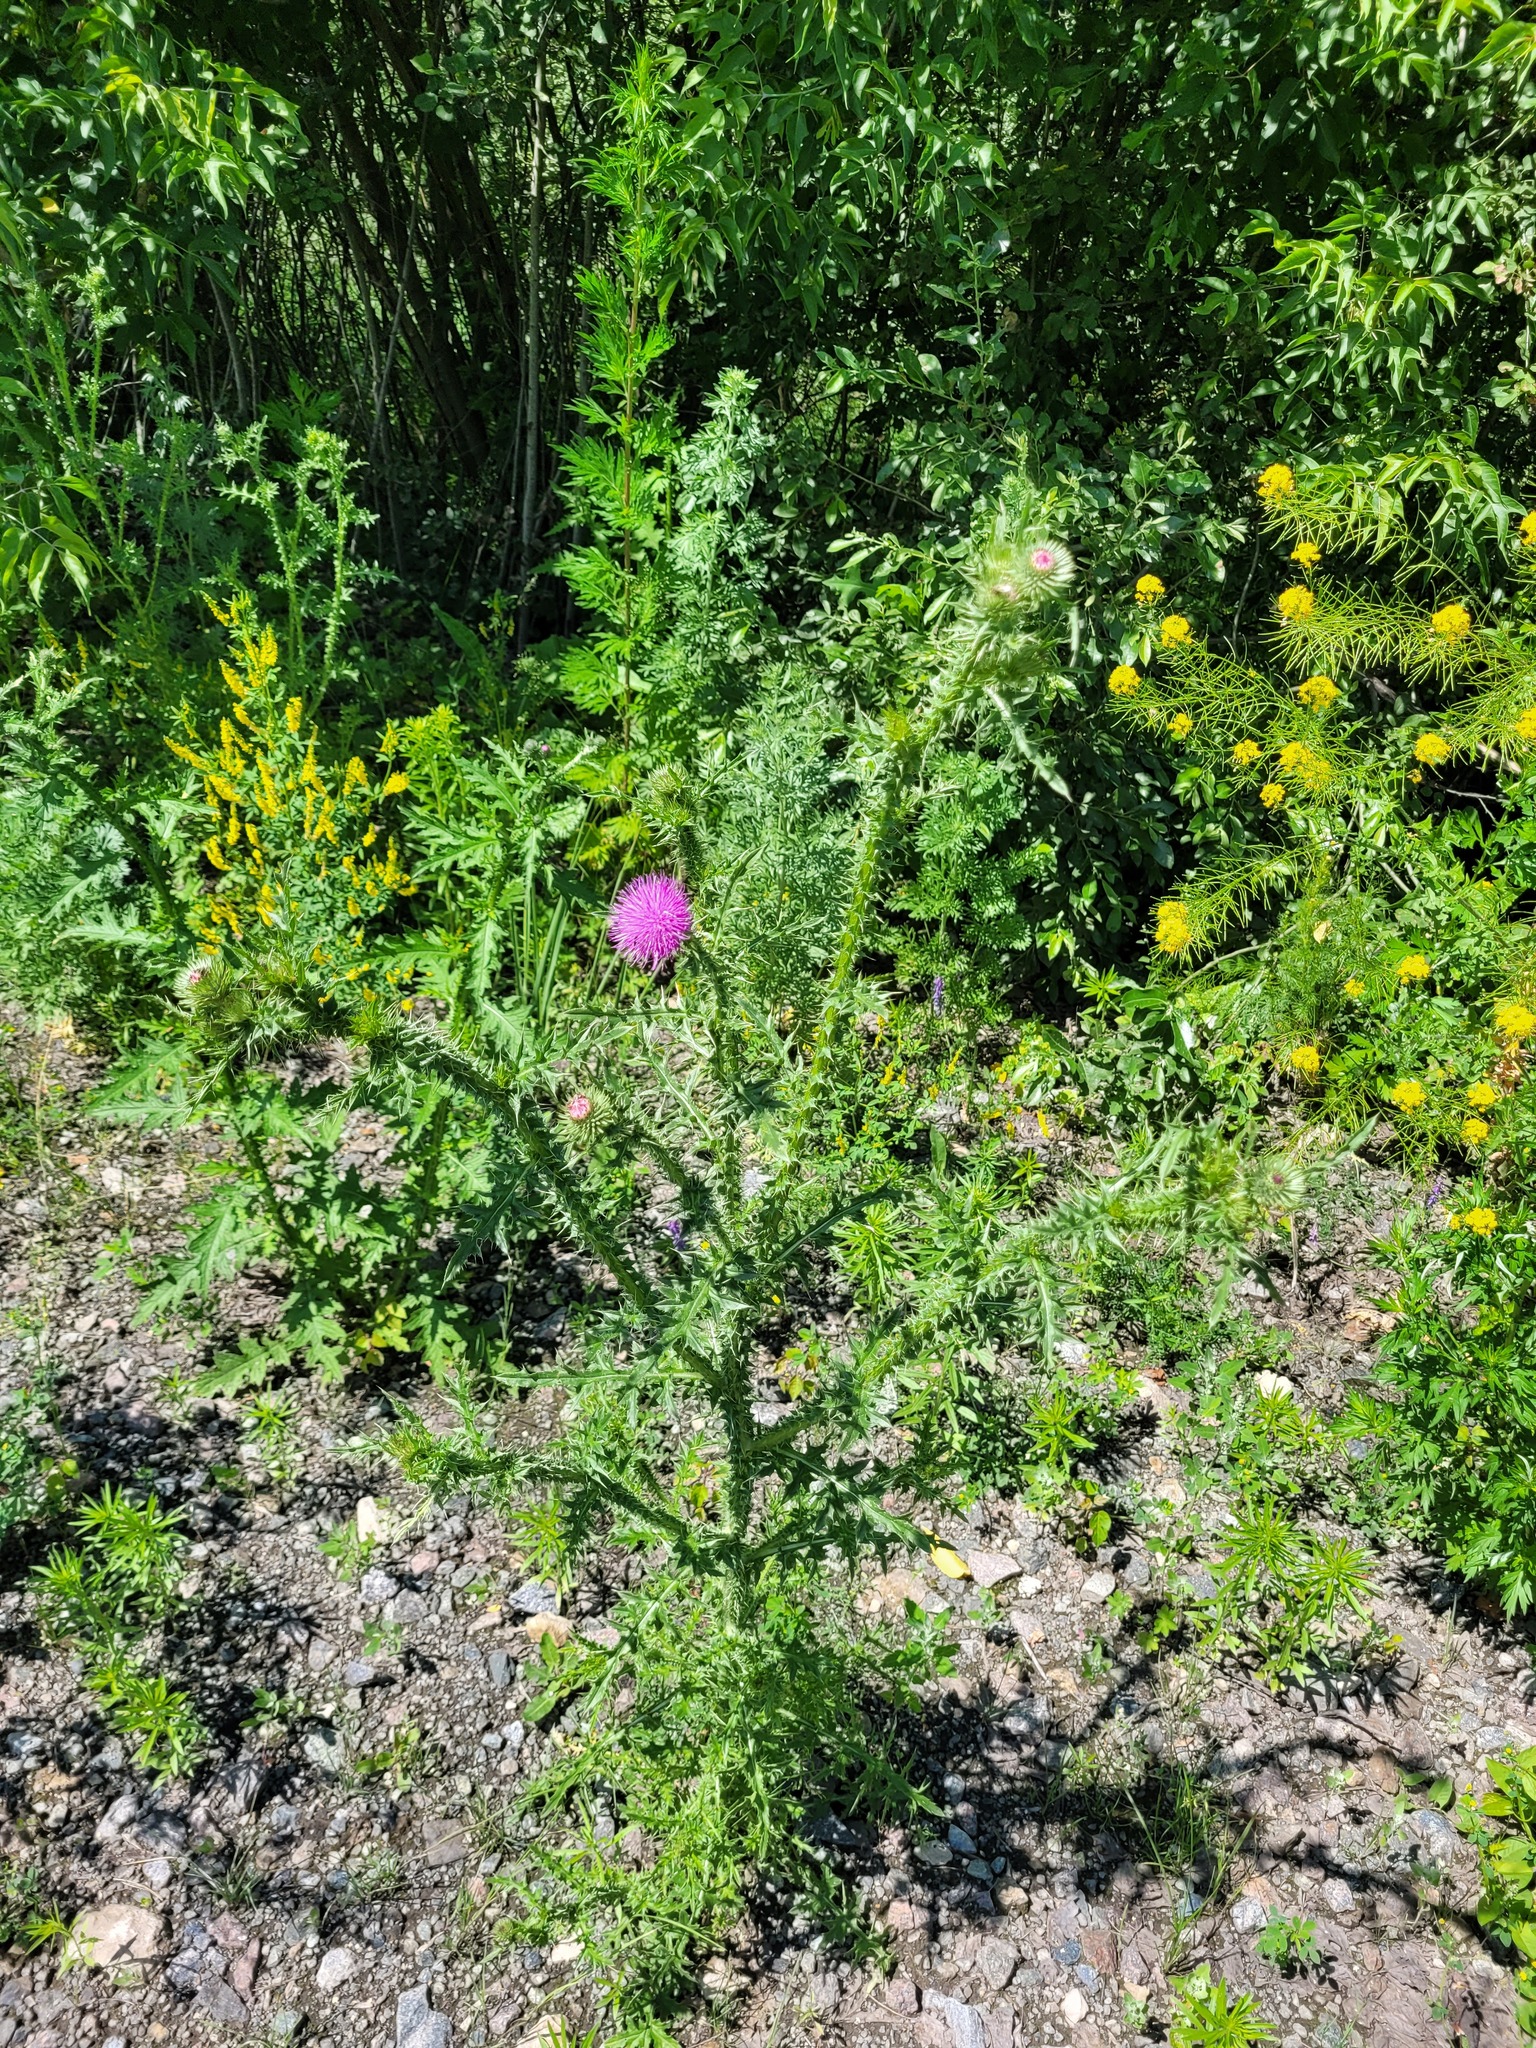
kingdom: Plantae
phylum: Tracheophyta
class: Magnoliopsida
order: Asterales
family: Asteraceae
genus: Carduus
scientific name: Carduus acanthoides
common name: Plumeless thistle
